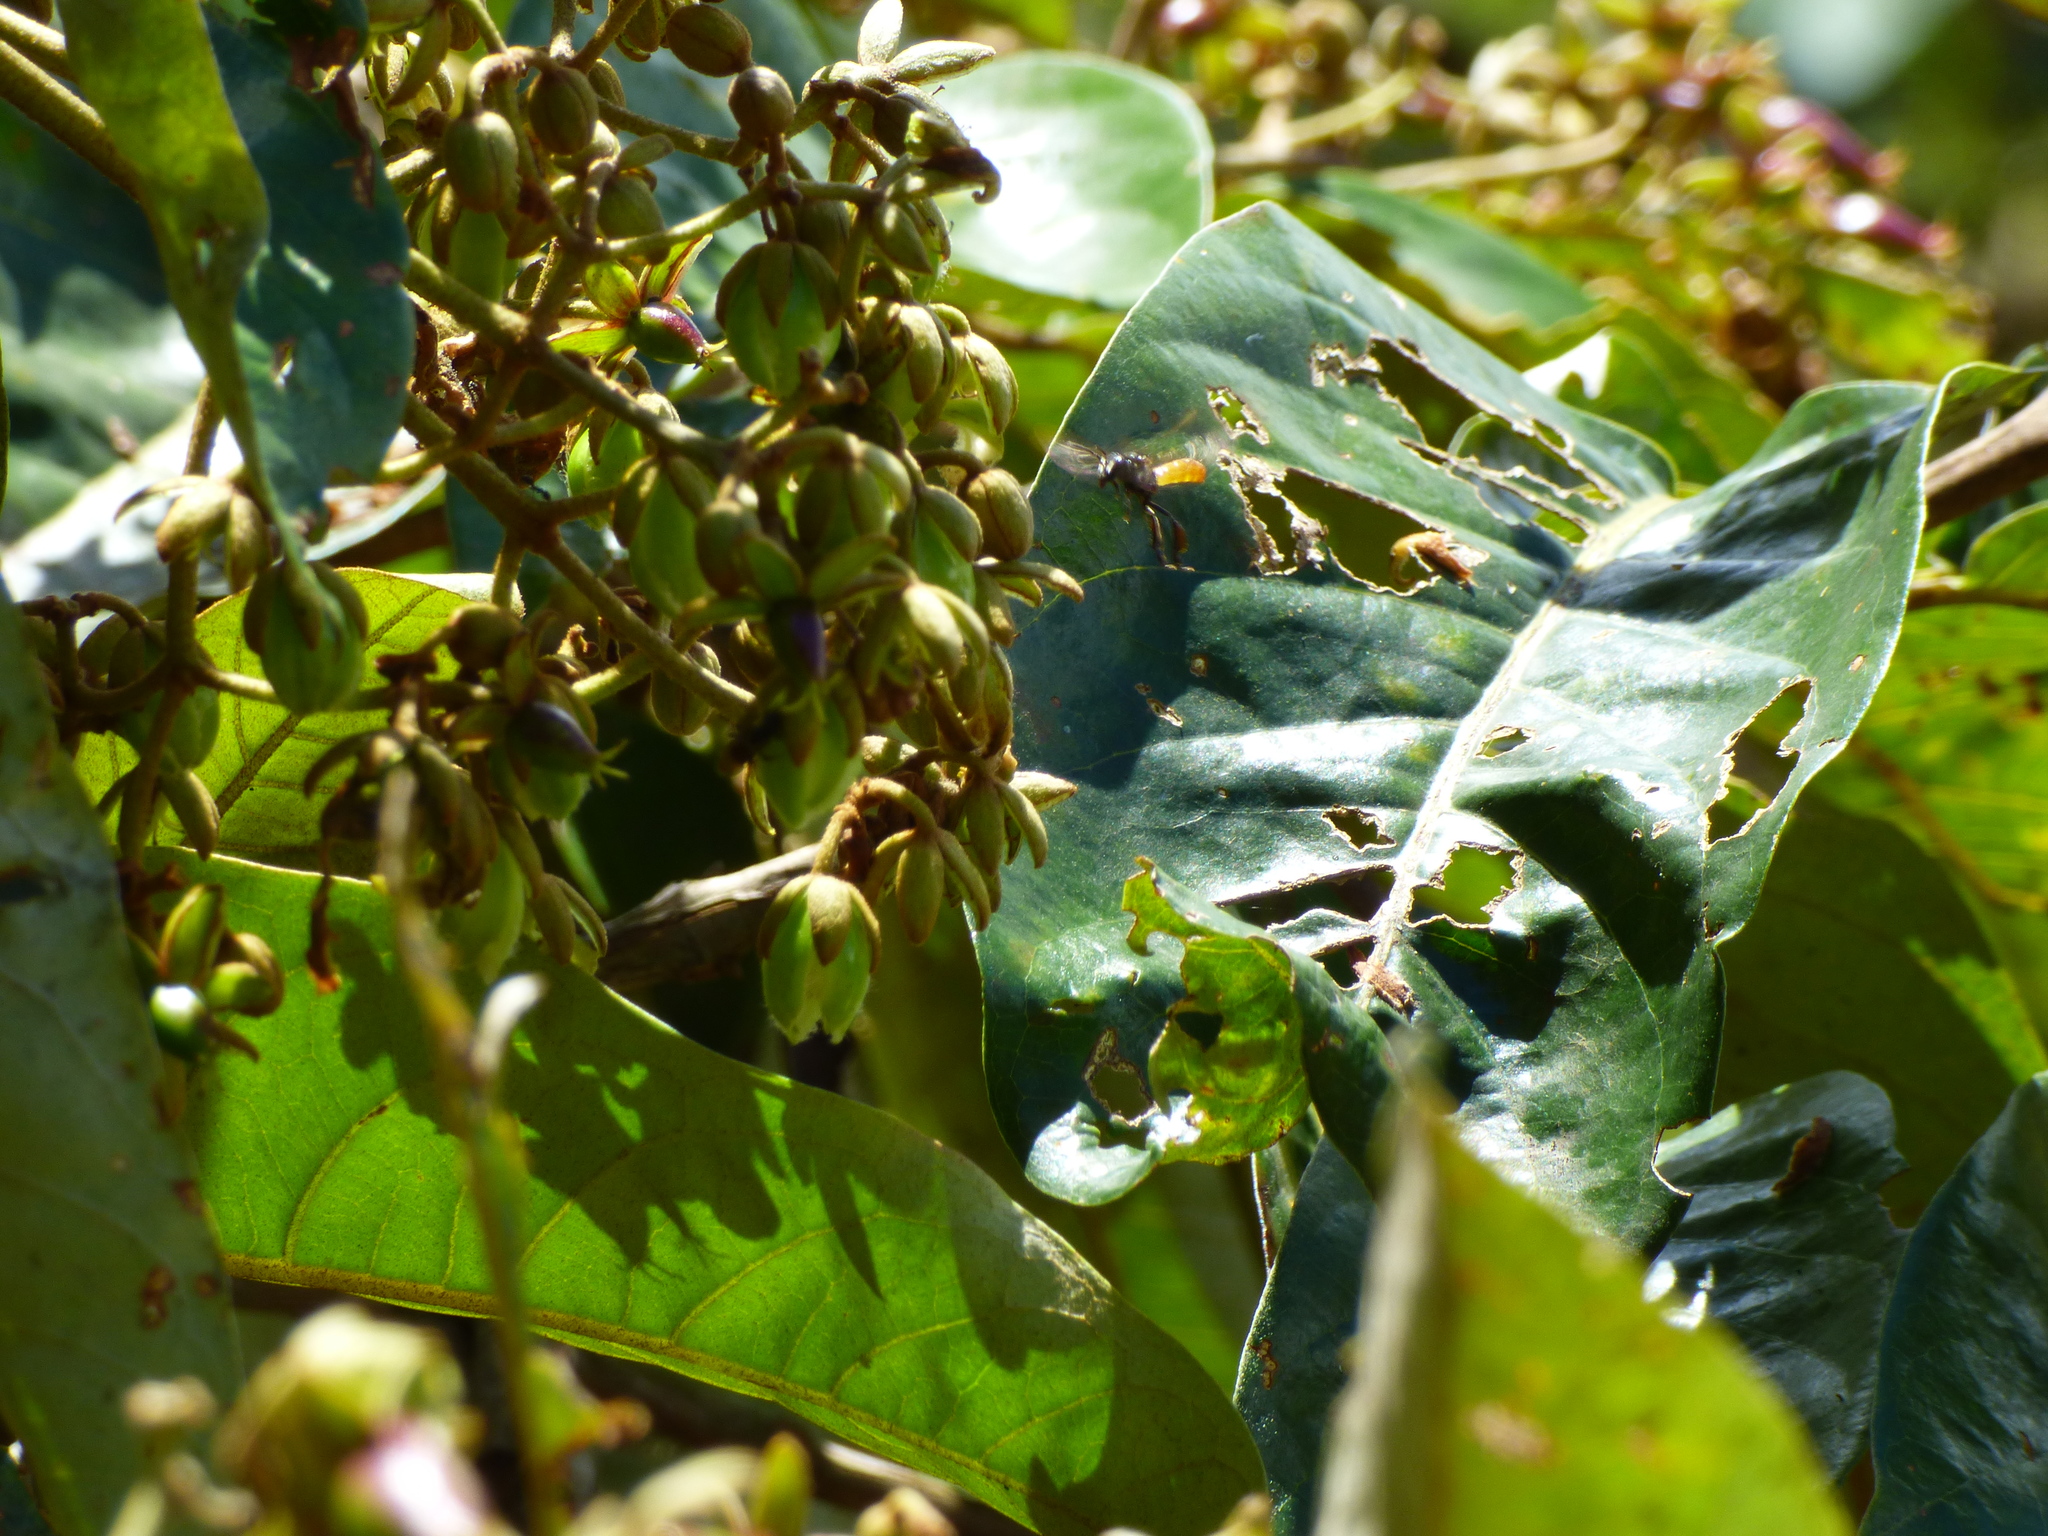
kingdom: Animalia
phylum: Arthropoda
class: Insecta
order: Hymenoptera
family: Apidae
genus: Trigona
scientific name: Trigona fulviventris
